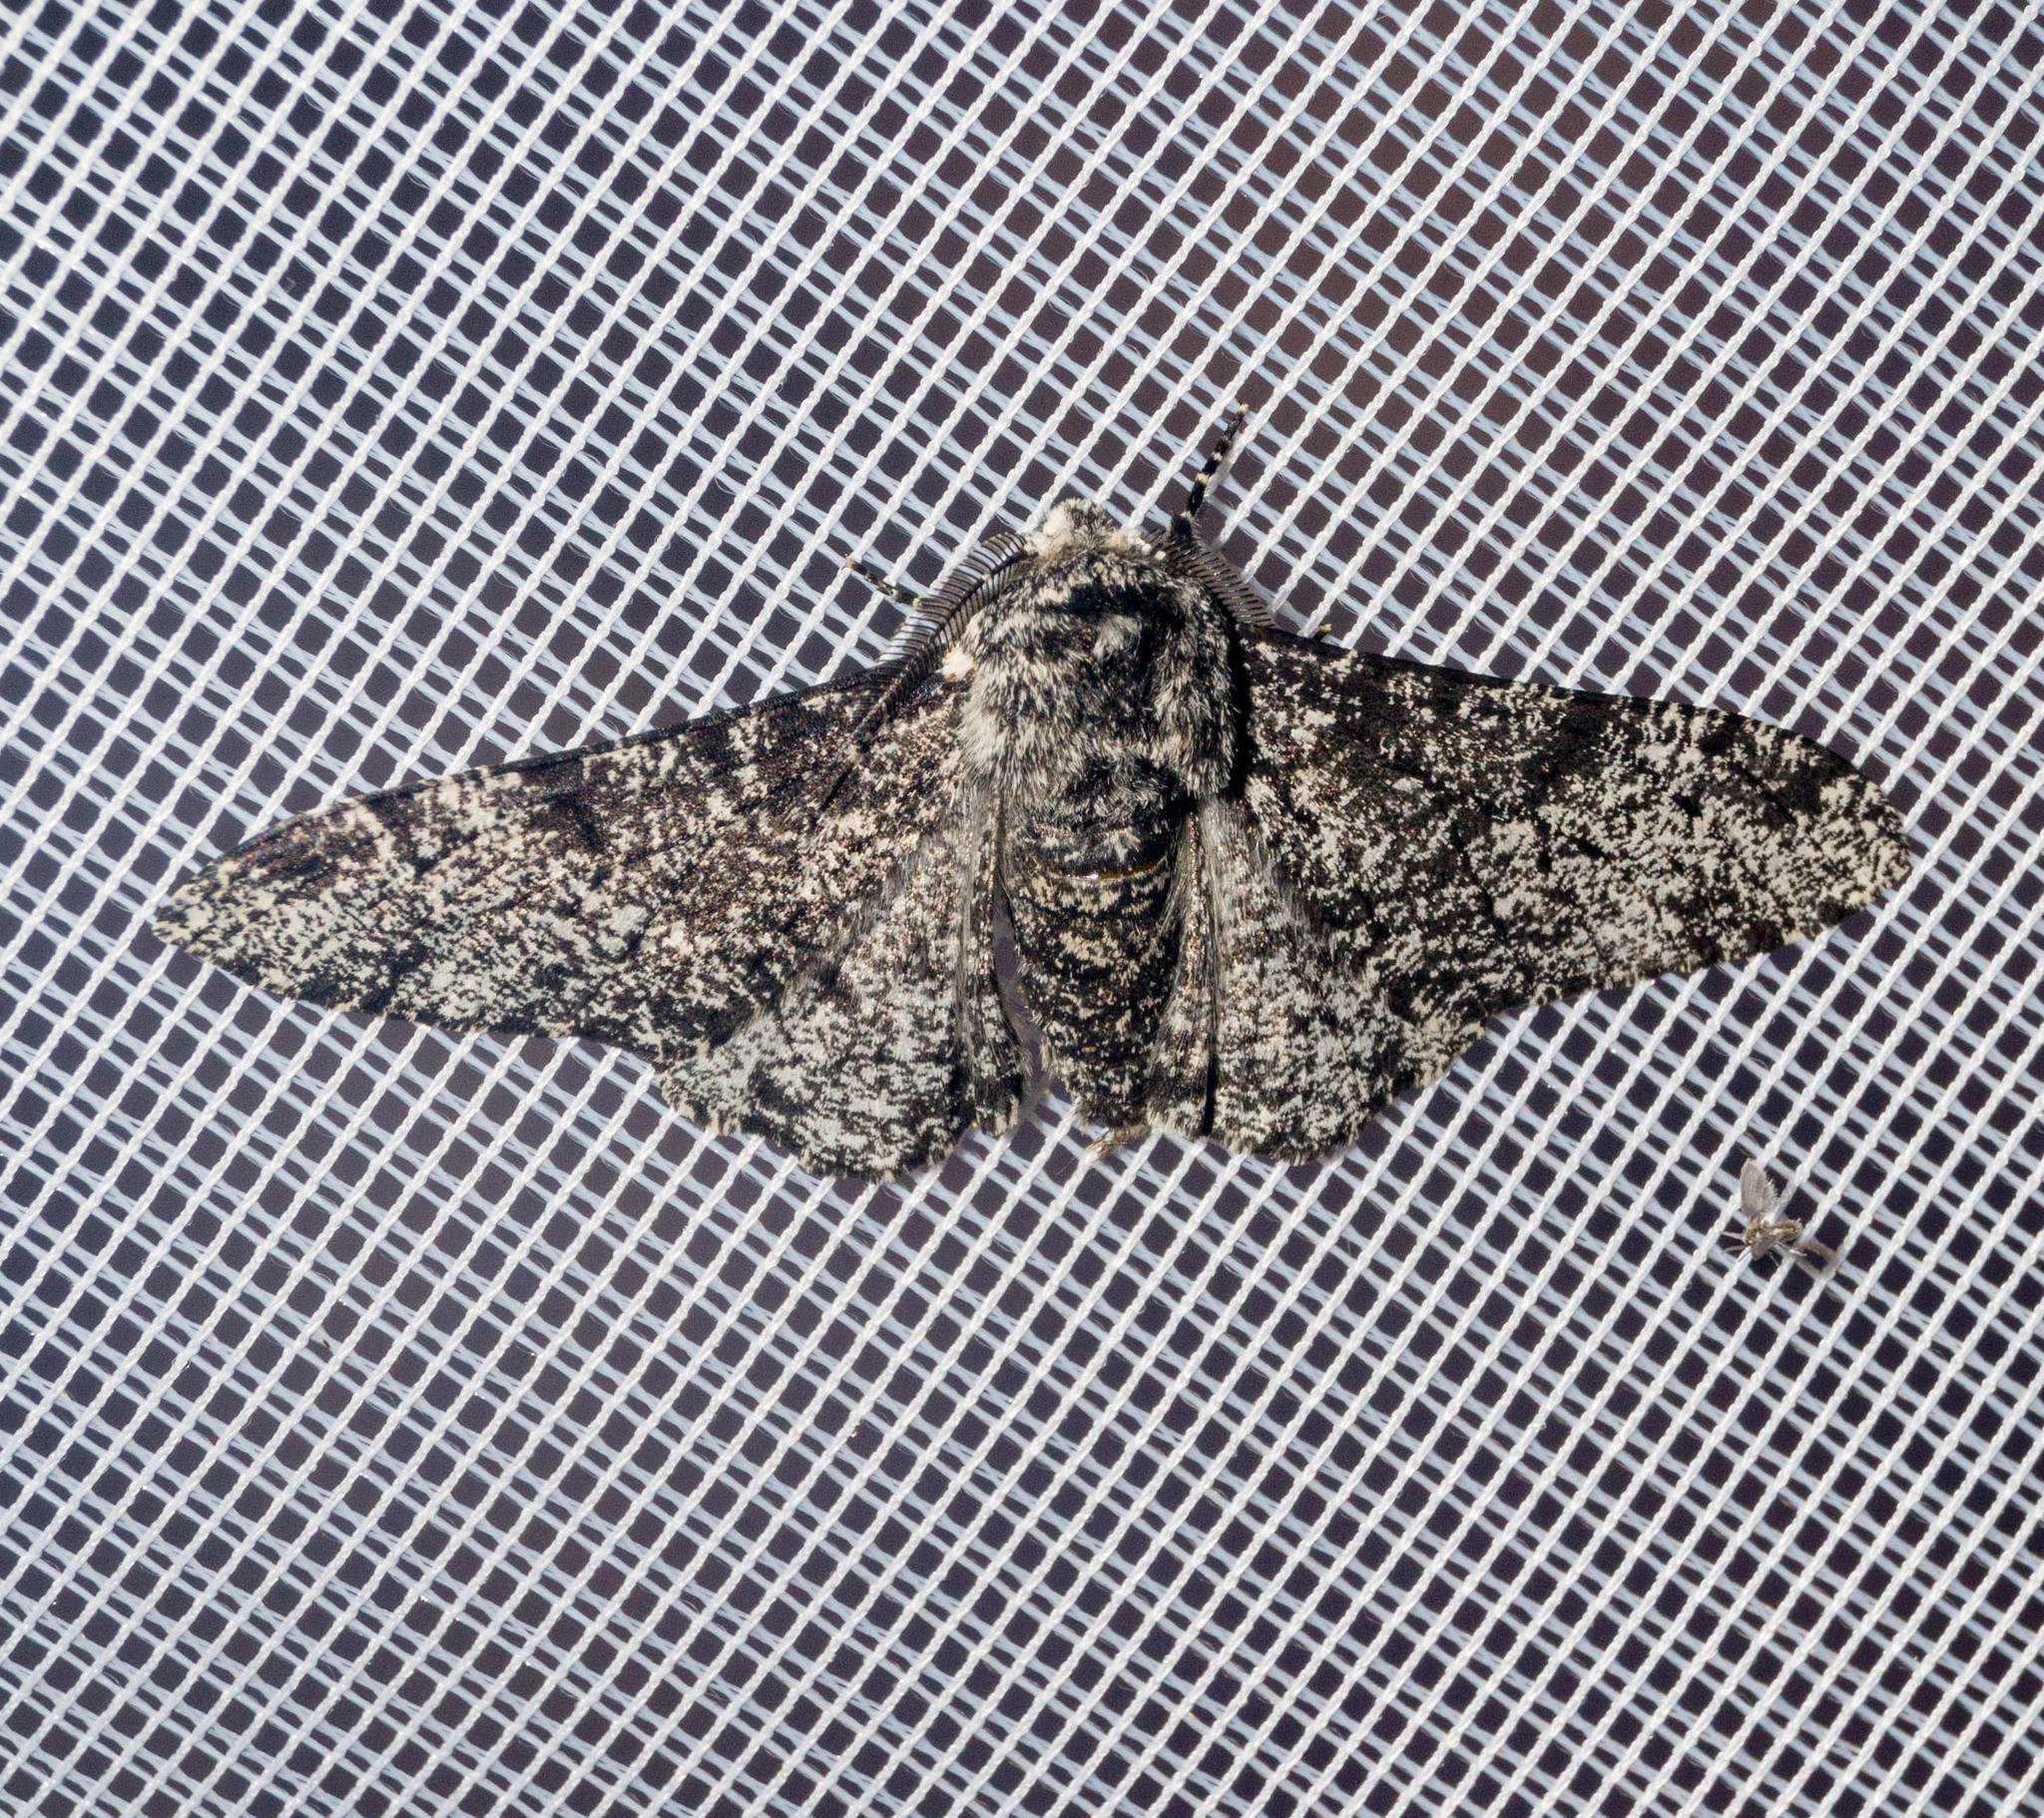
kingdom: Animalia
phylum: Arthropoda
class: Insecta
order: Lepidoptera
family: Geometridae
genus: Biston
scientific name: Biston betularia
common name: Peppered moth
